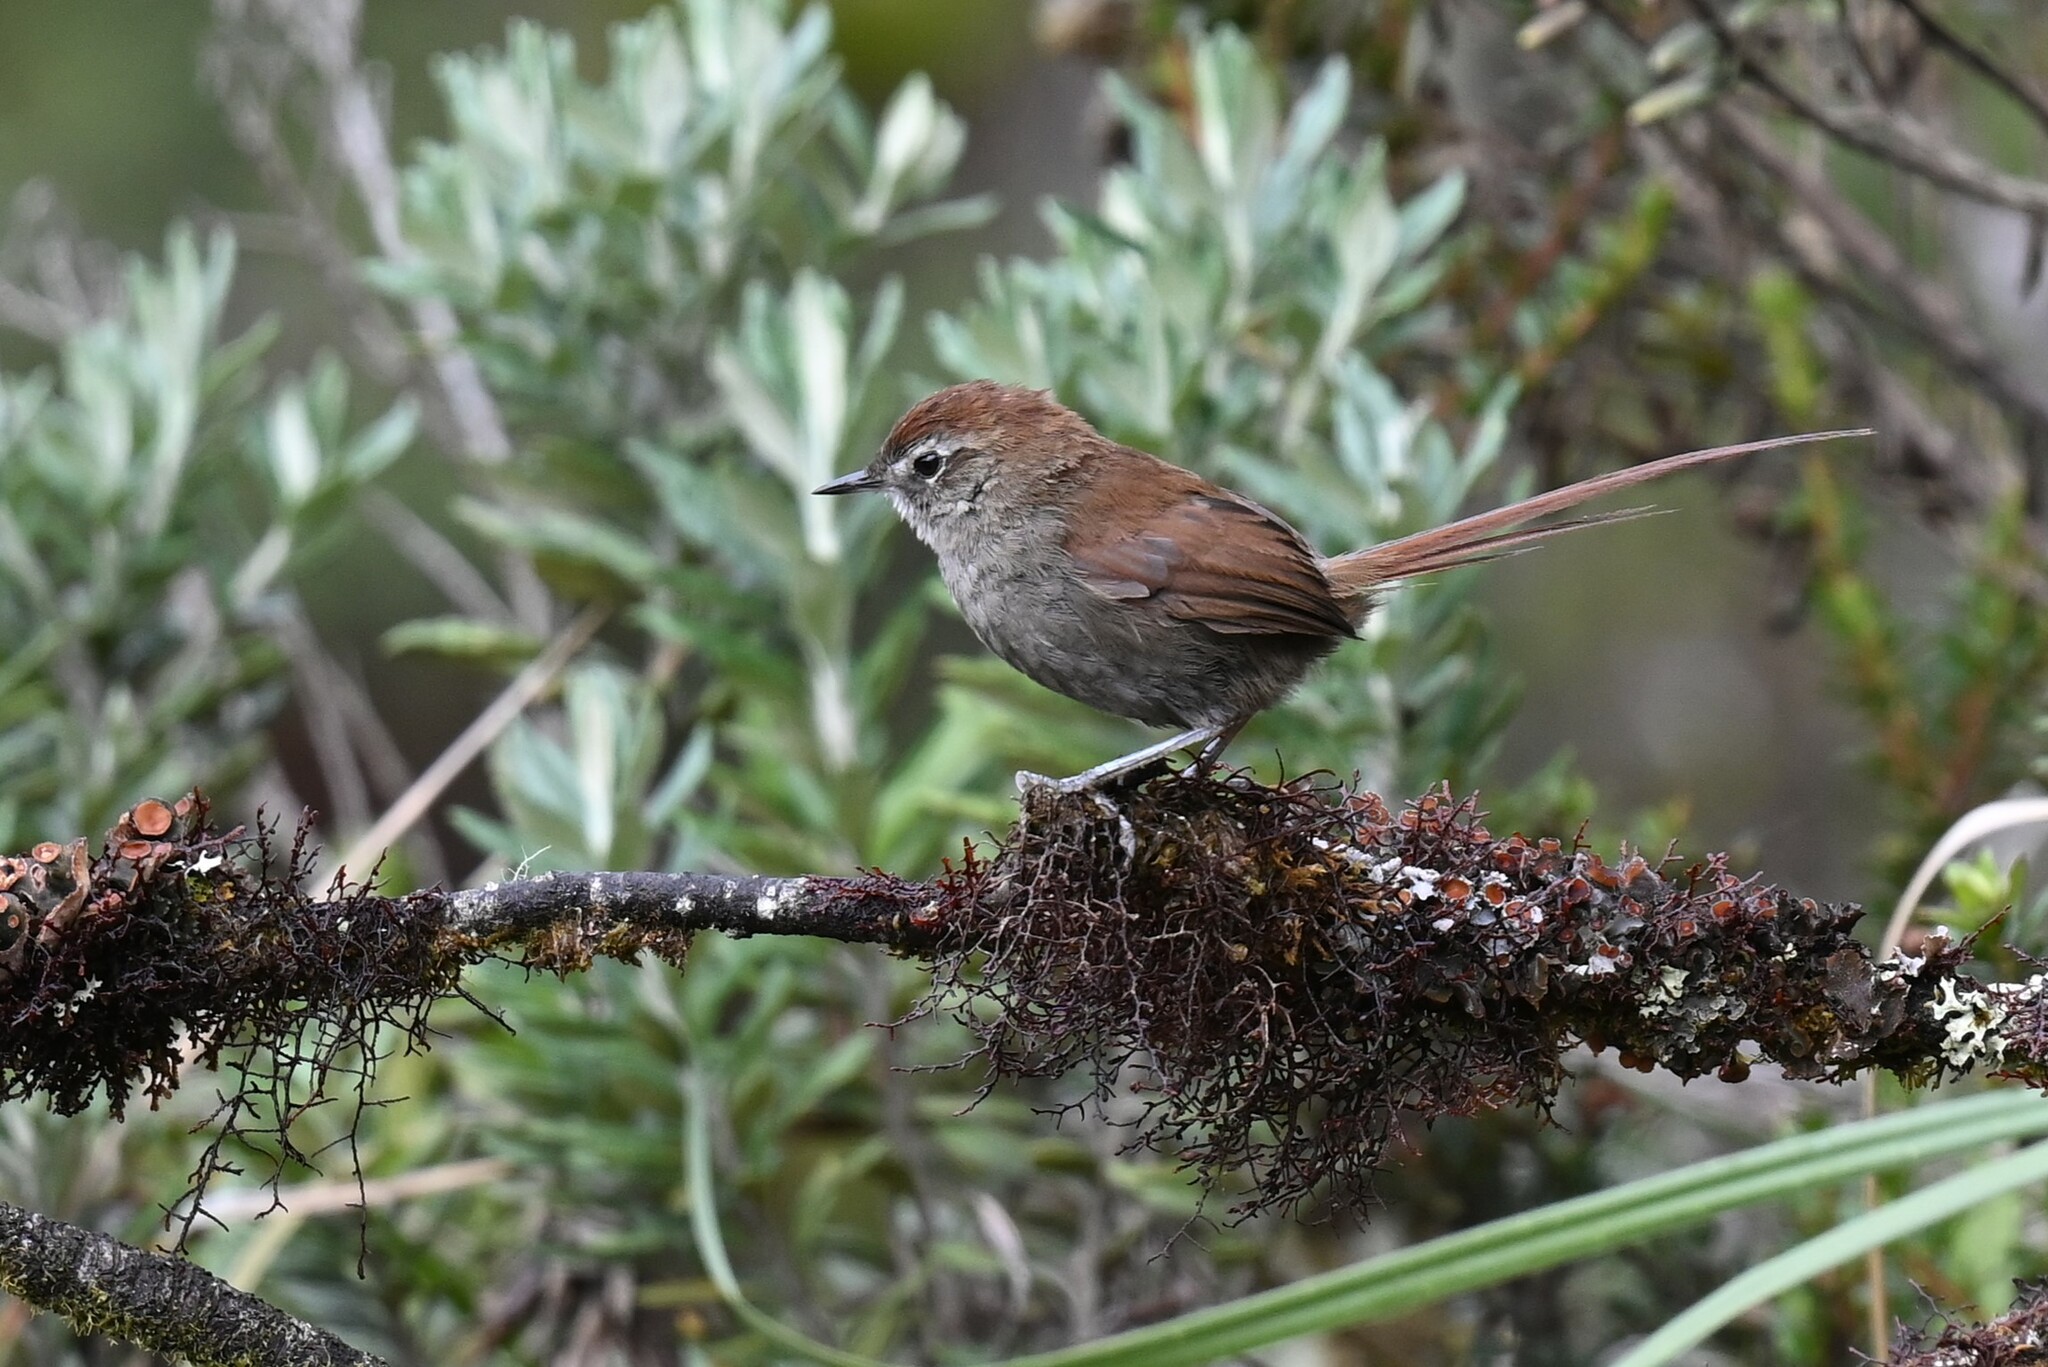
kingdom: Animalia
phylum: Chordata
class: Aves
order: Passeriformes
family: Furnariidae
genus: Schizoeaca
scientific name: Schizoeaca fuliginosa
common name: White-chinned thistletail
